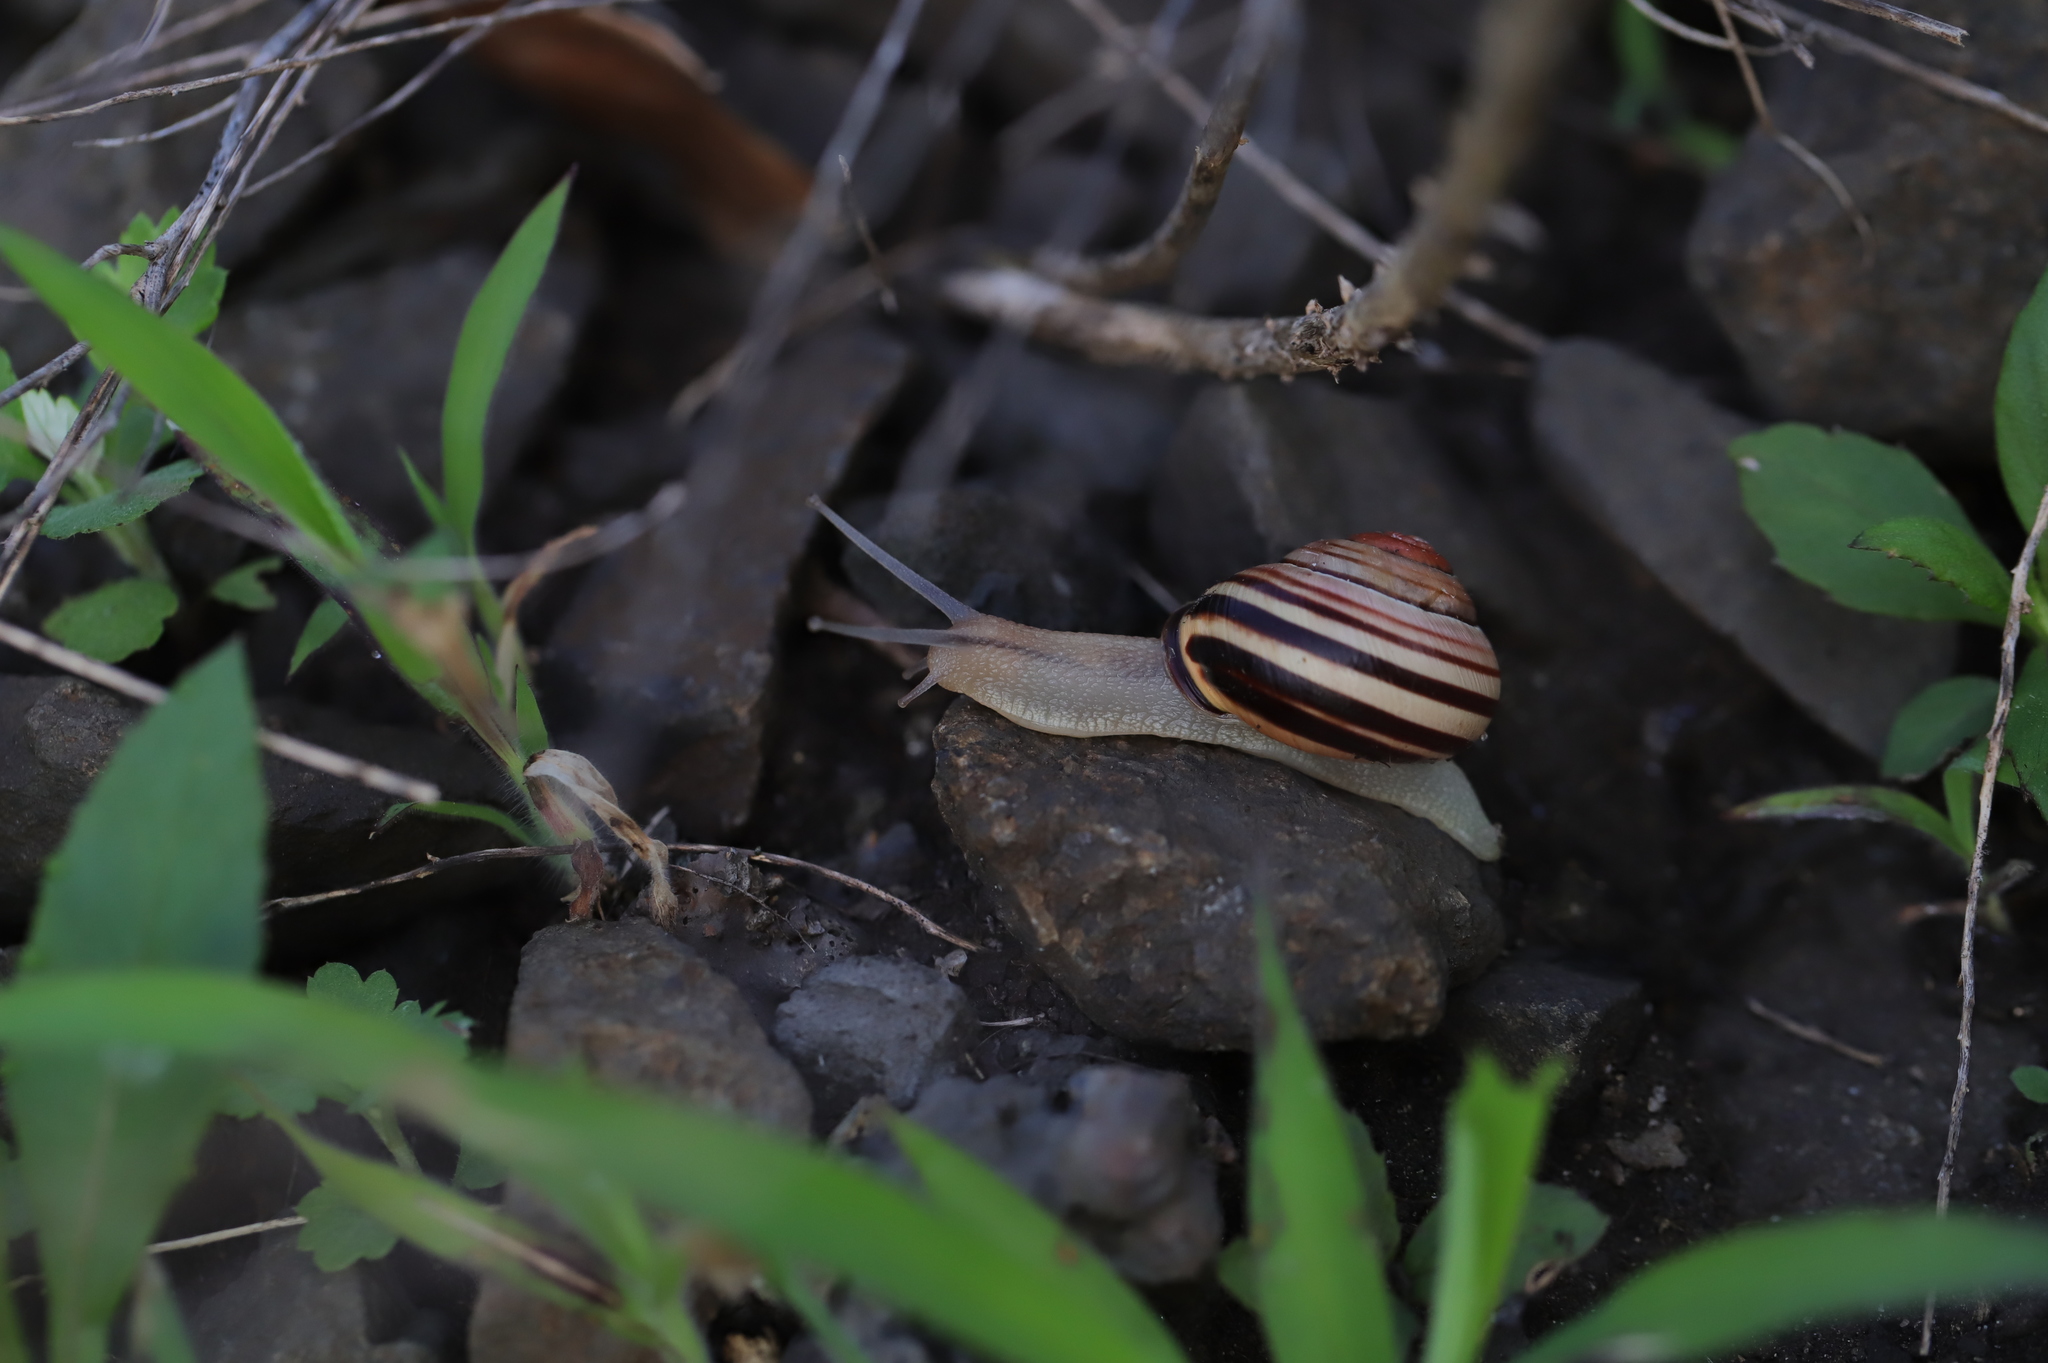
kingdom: Animalia
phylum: Mollusca
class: Gastropoda
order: Stylommatophora
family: Helicidae
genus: Cepaea
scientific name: Cepaea nemoralis
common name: Grovesnail
